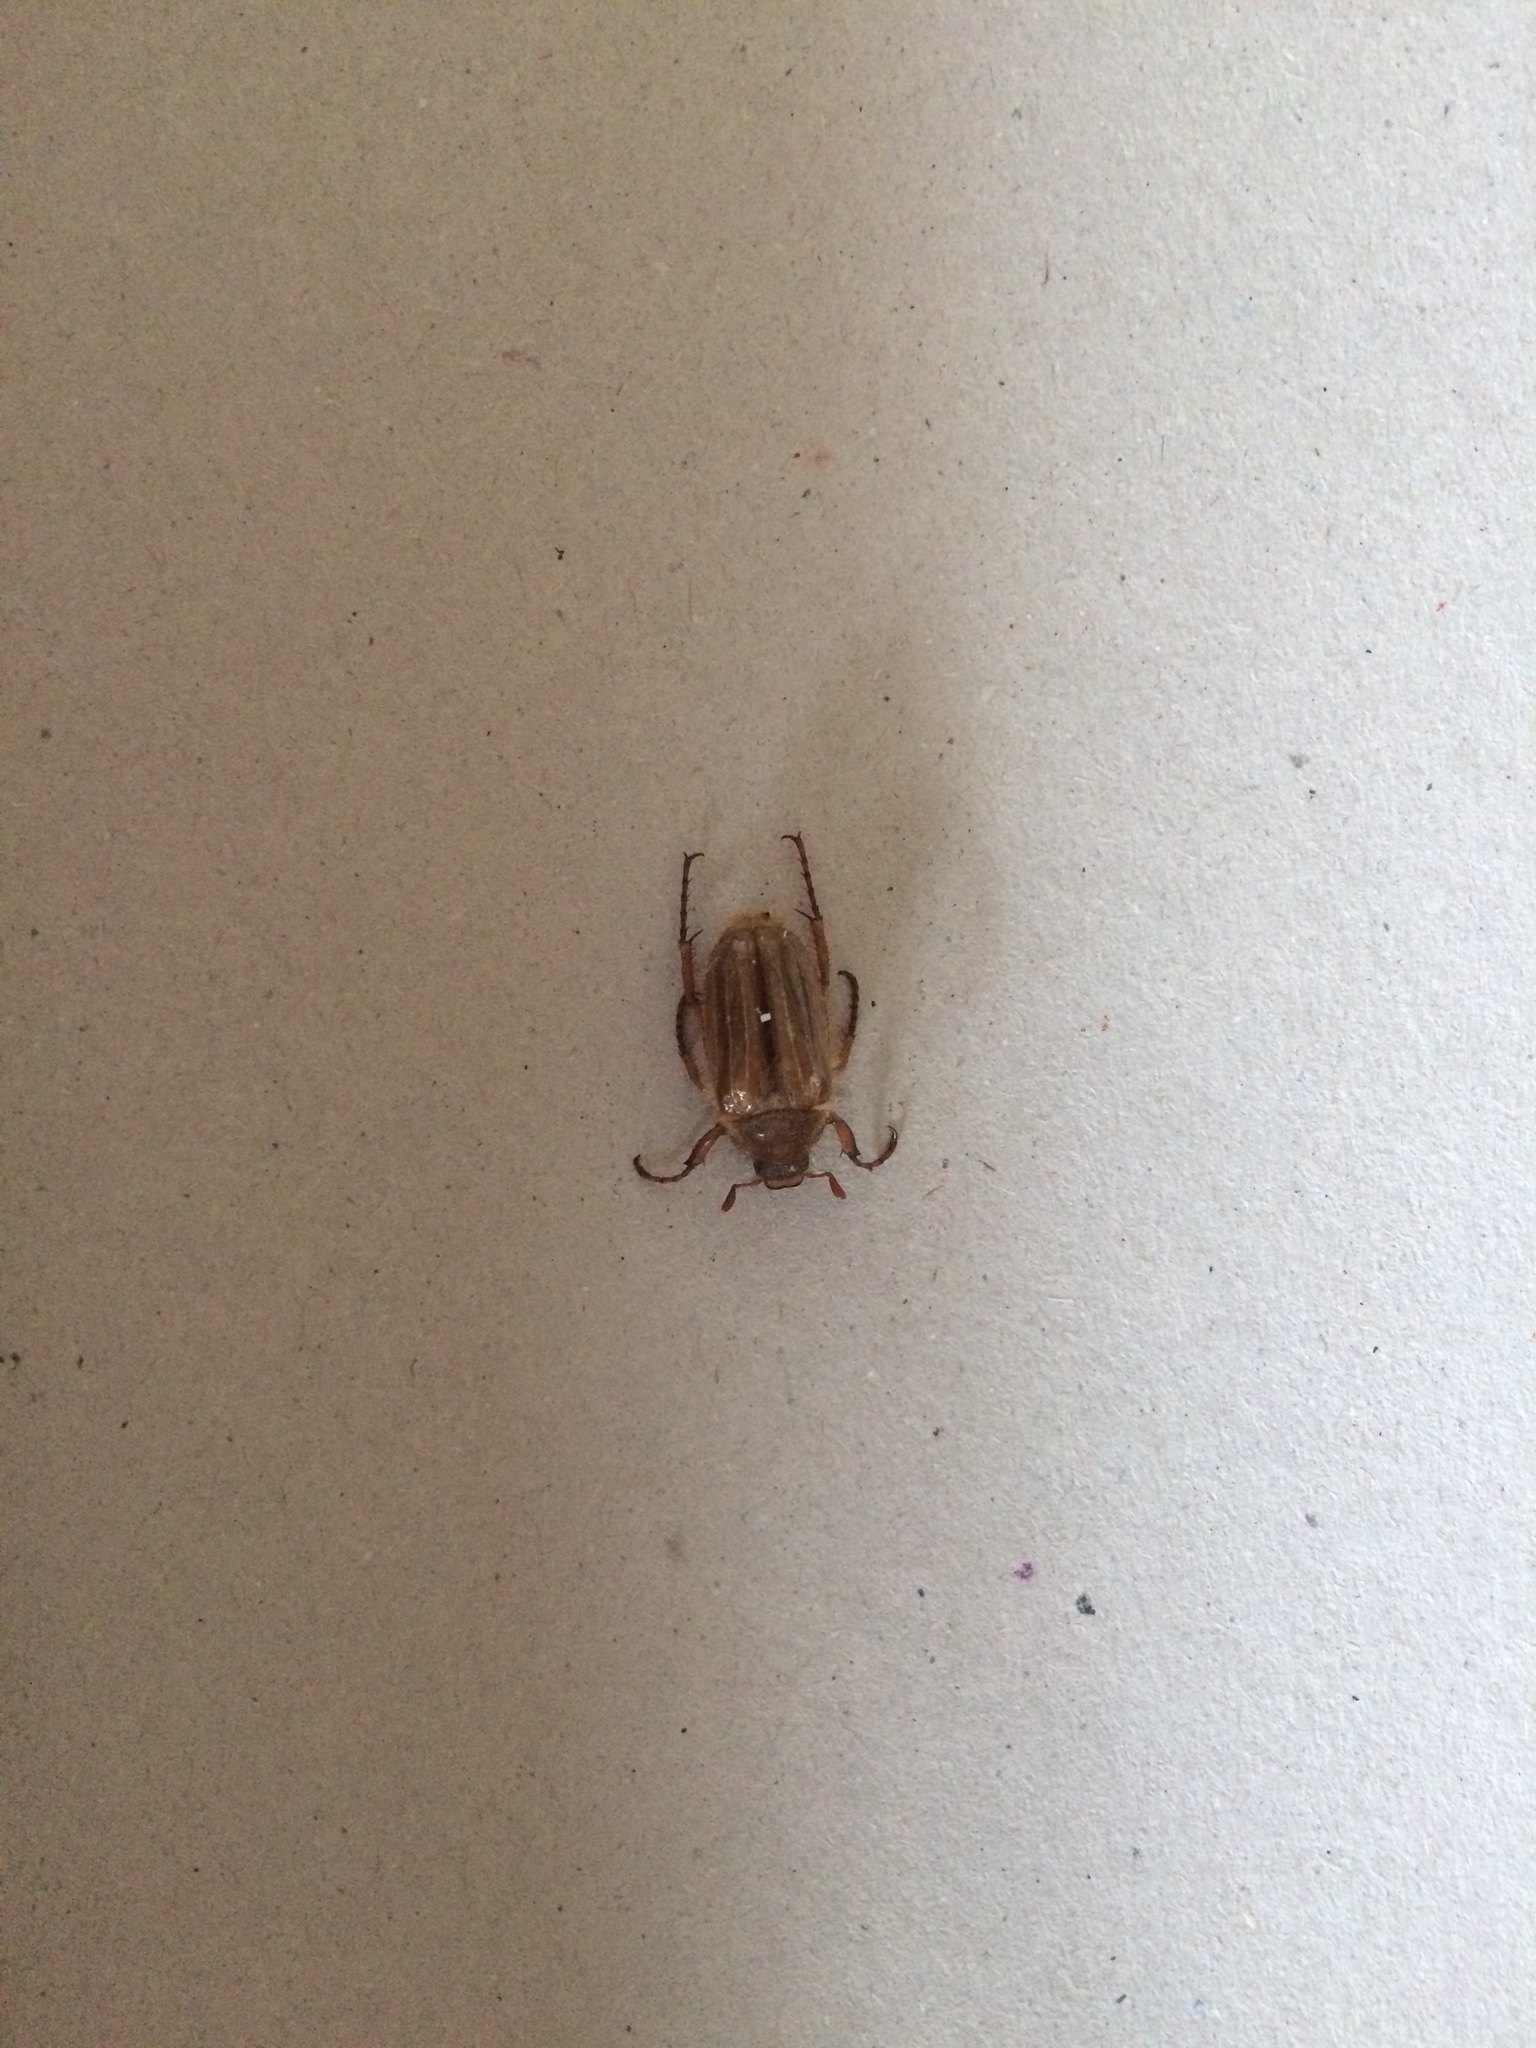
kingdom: Animalia
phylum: Arthropoda
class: Insecta
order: Coleoptera
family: Scarabaeidae
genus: Amphimallon
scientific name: Amphimallon solstitiale
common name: Summer chafer
